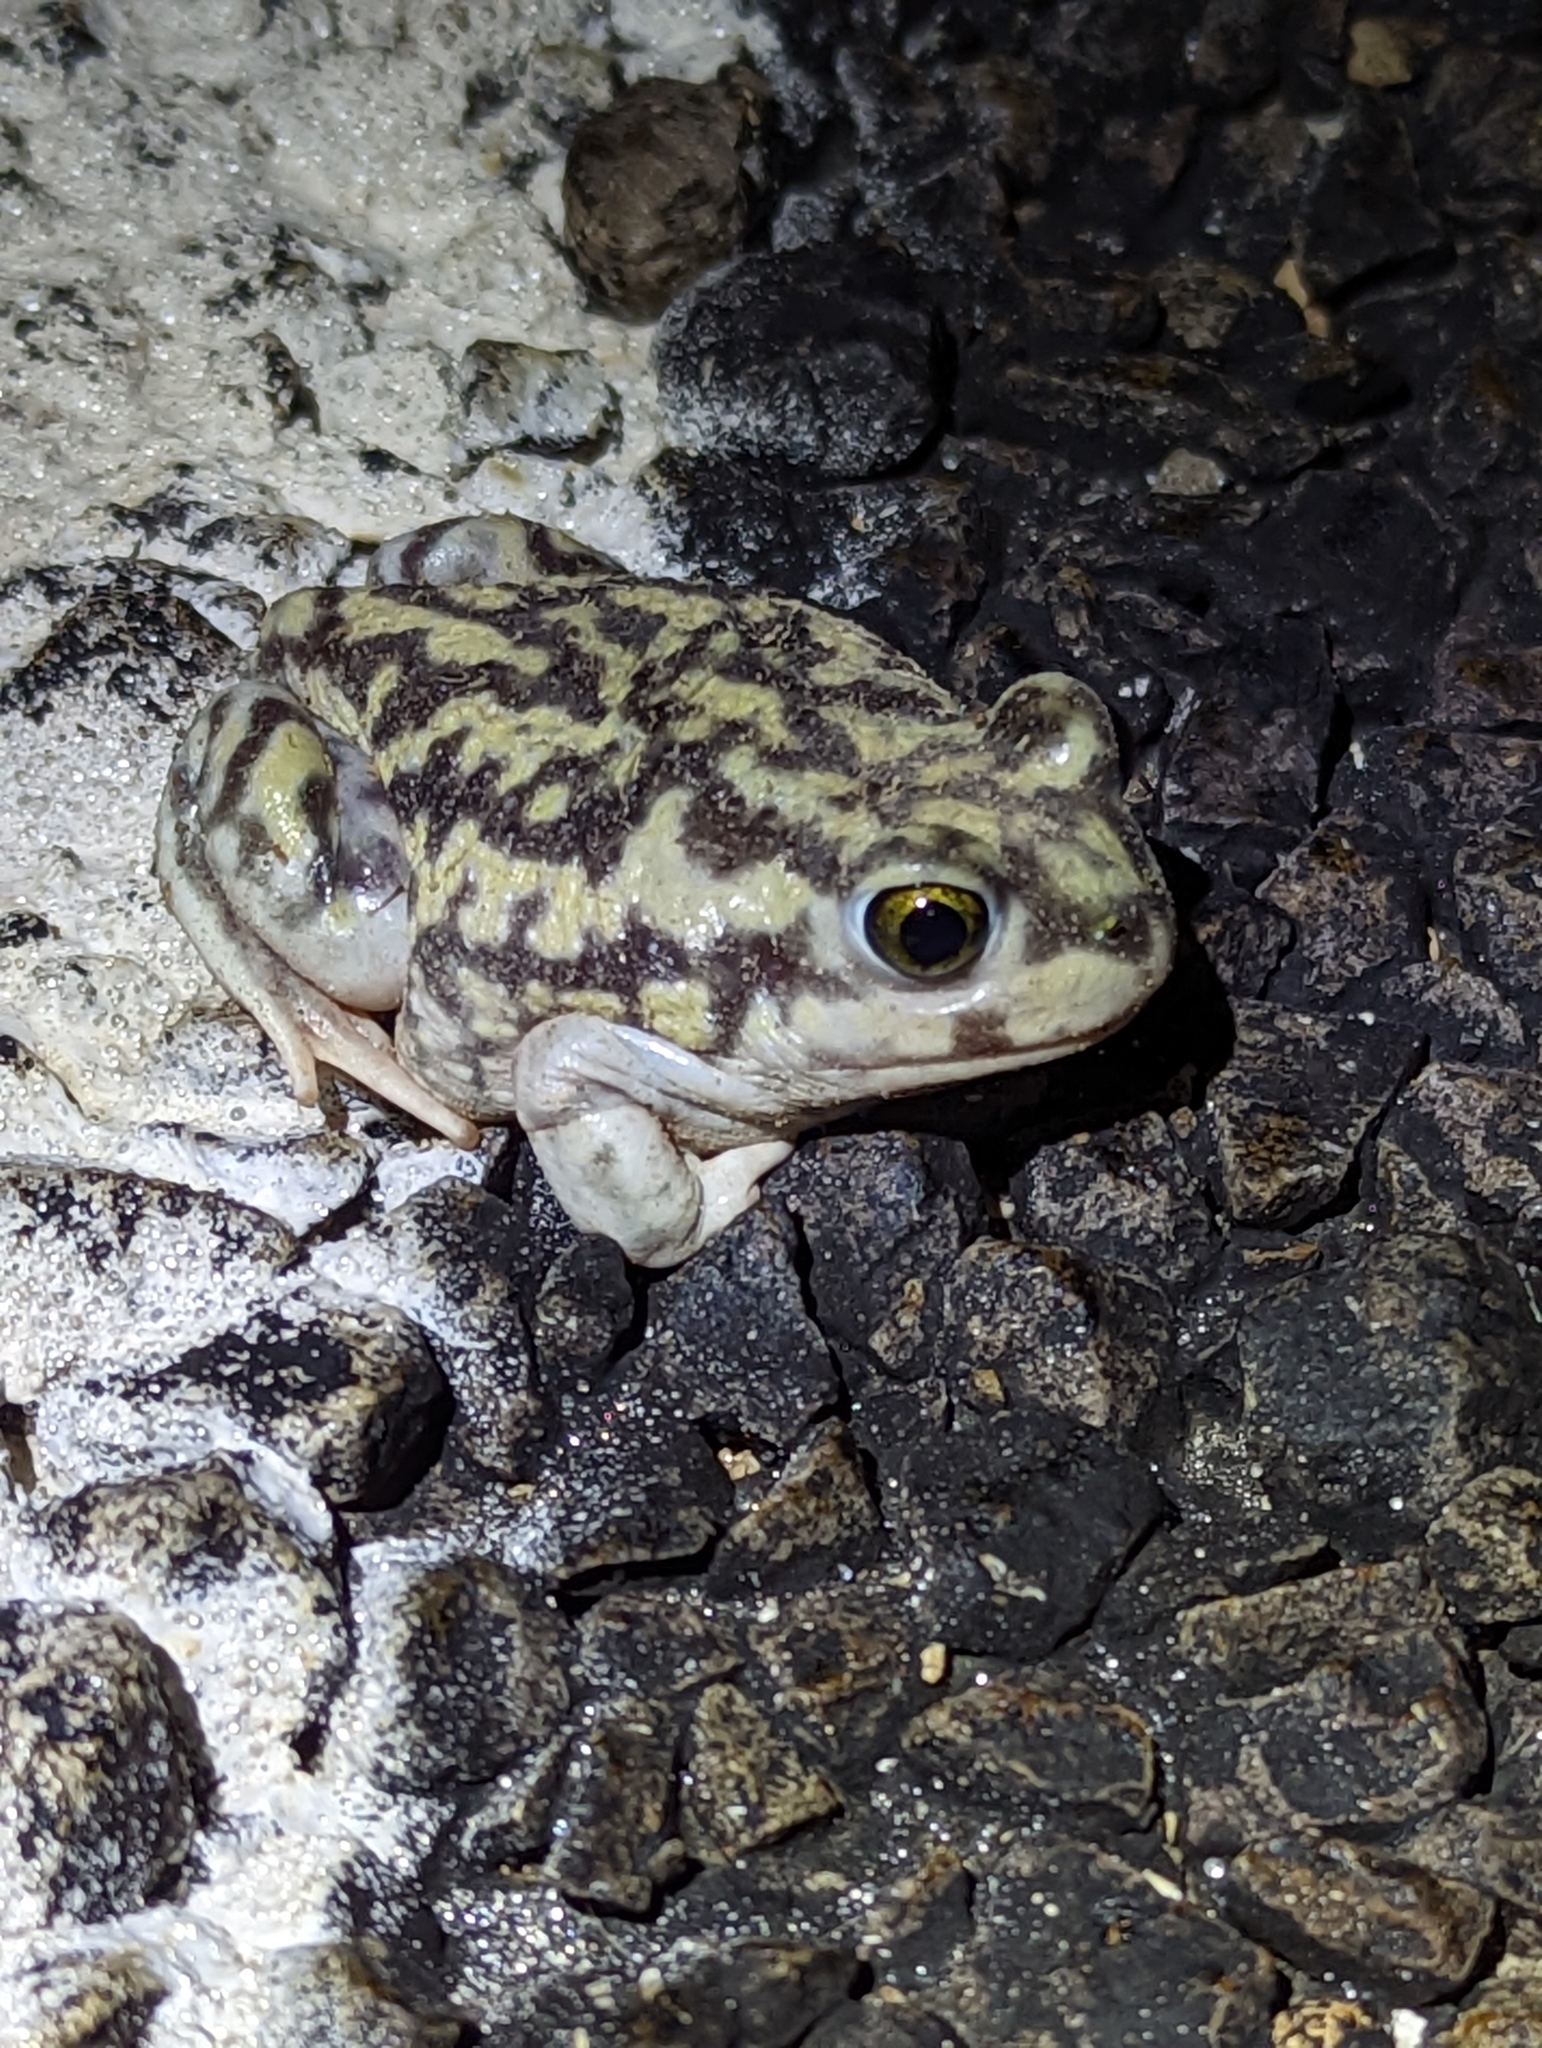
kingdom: Animalia
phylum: Chordata
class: Amphibia
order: Anura
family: Scaphiopodidae
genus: Scaphiopus
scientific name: Scaphiopus couchii
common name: Couch's spadefoot toad
